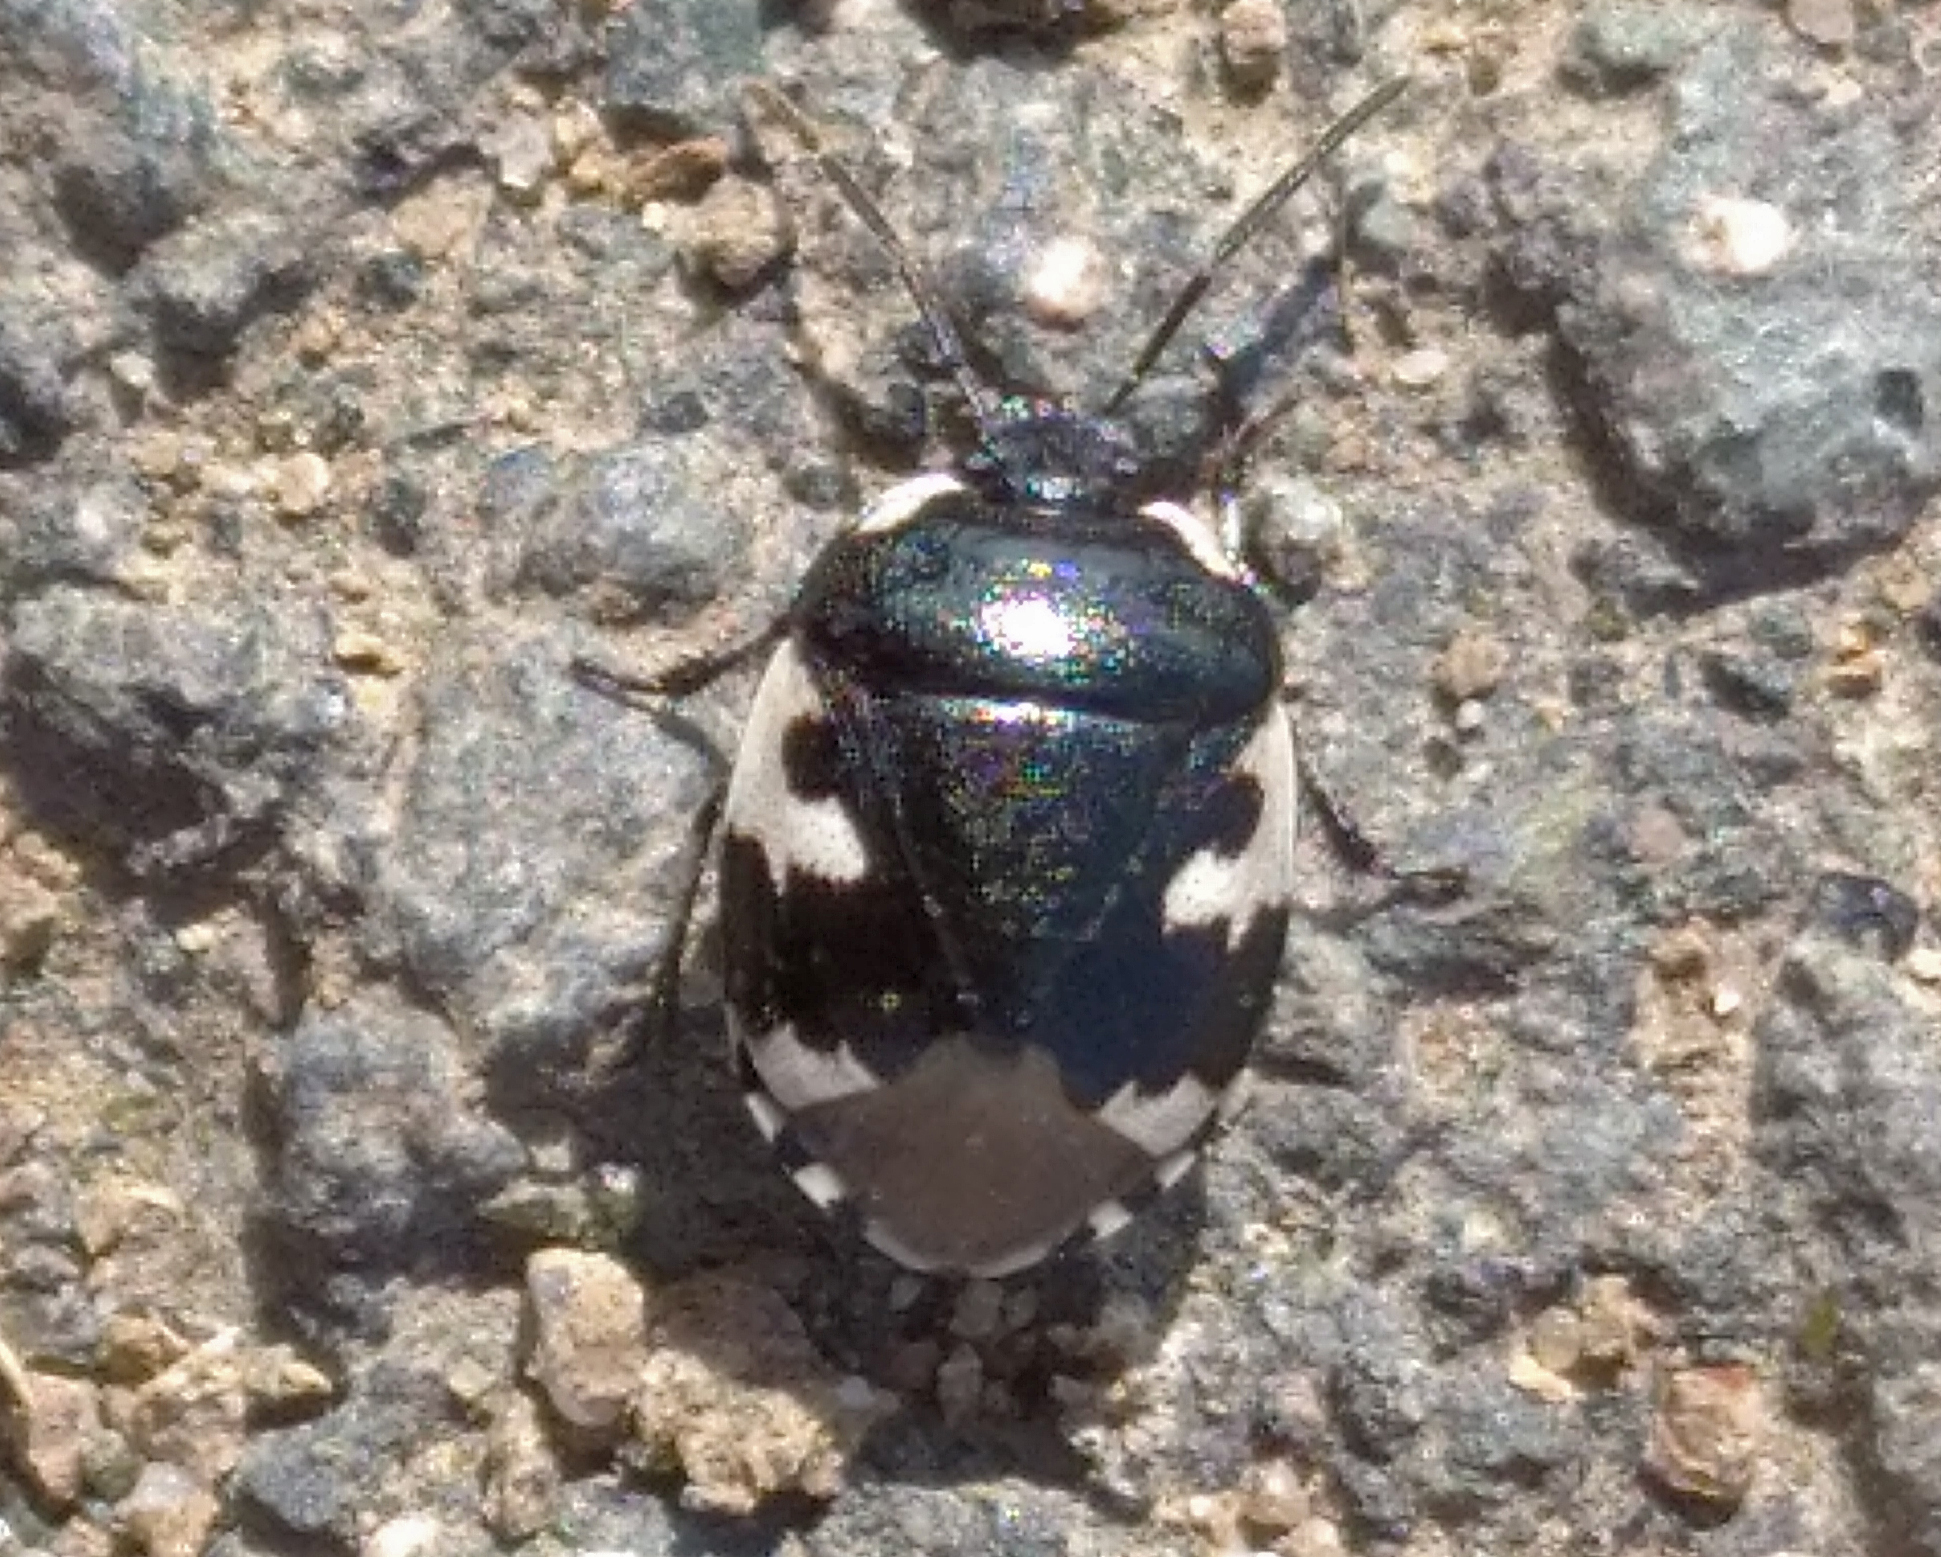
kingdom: Animalia
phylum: Arthropoda
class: Insecta
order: Hemiptera
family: Cydnidae
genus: Tritomegas
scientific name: Tritomegas bicolor
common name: Pied shieldbug
